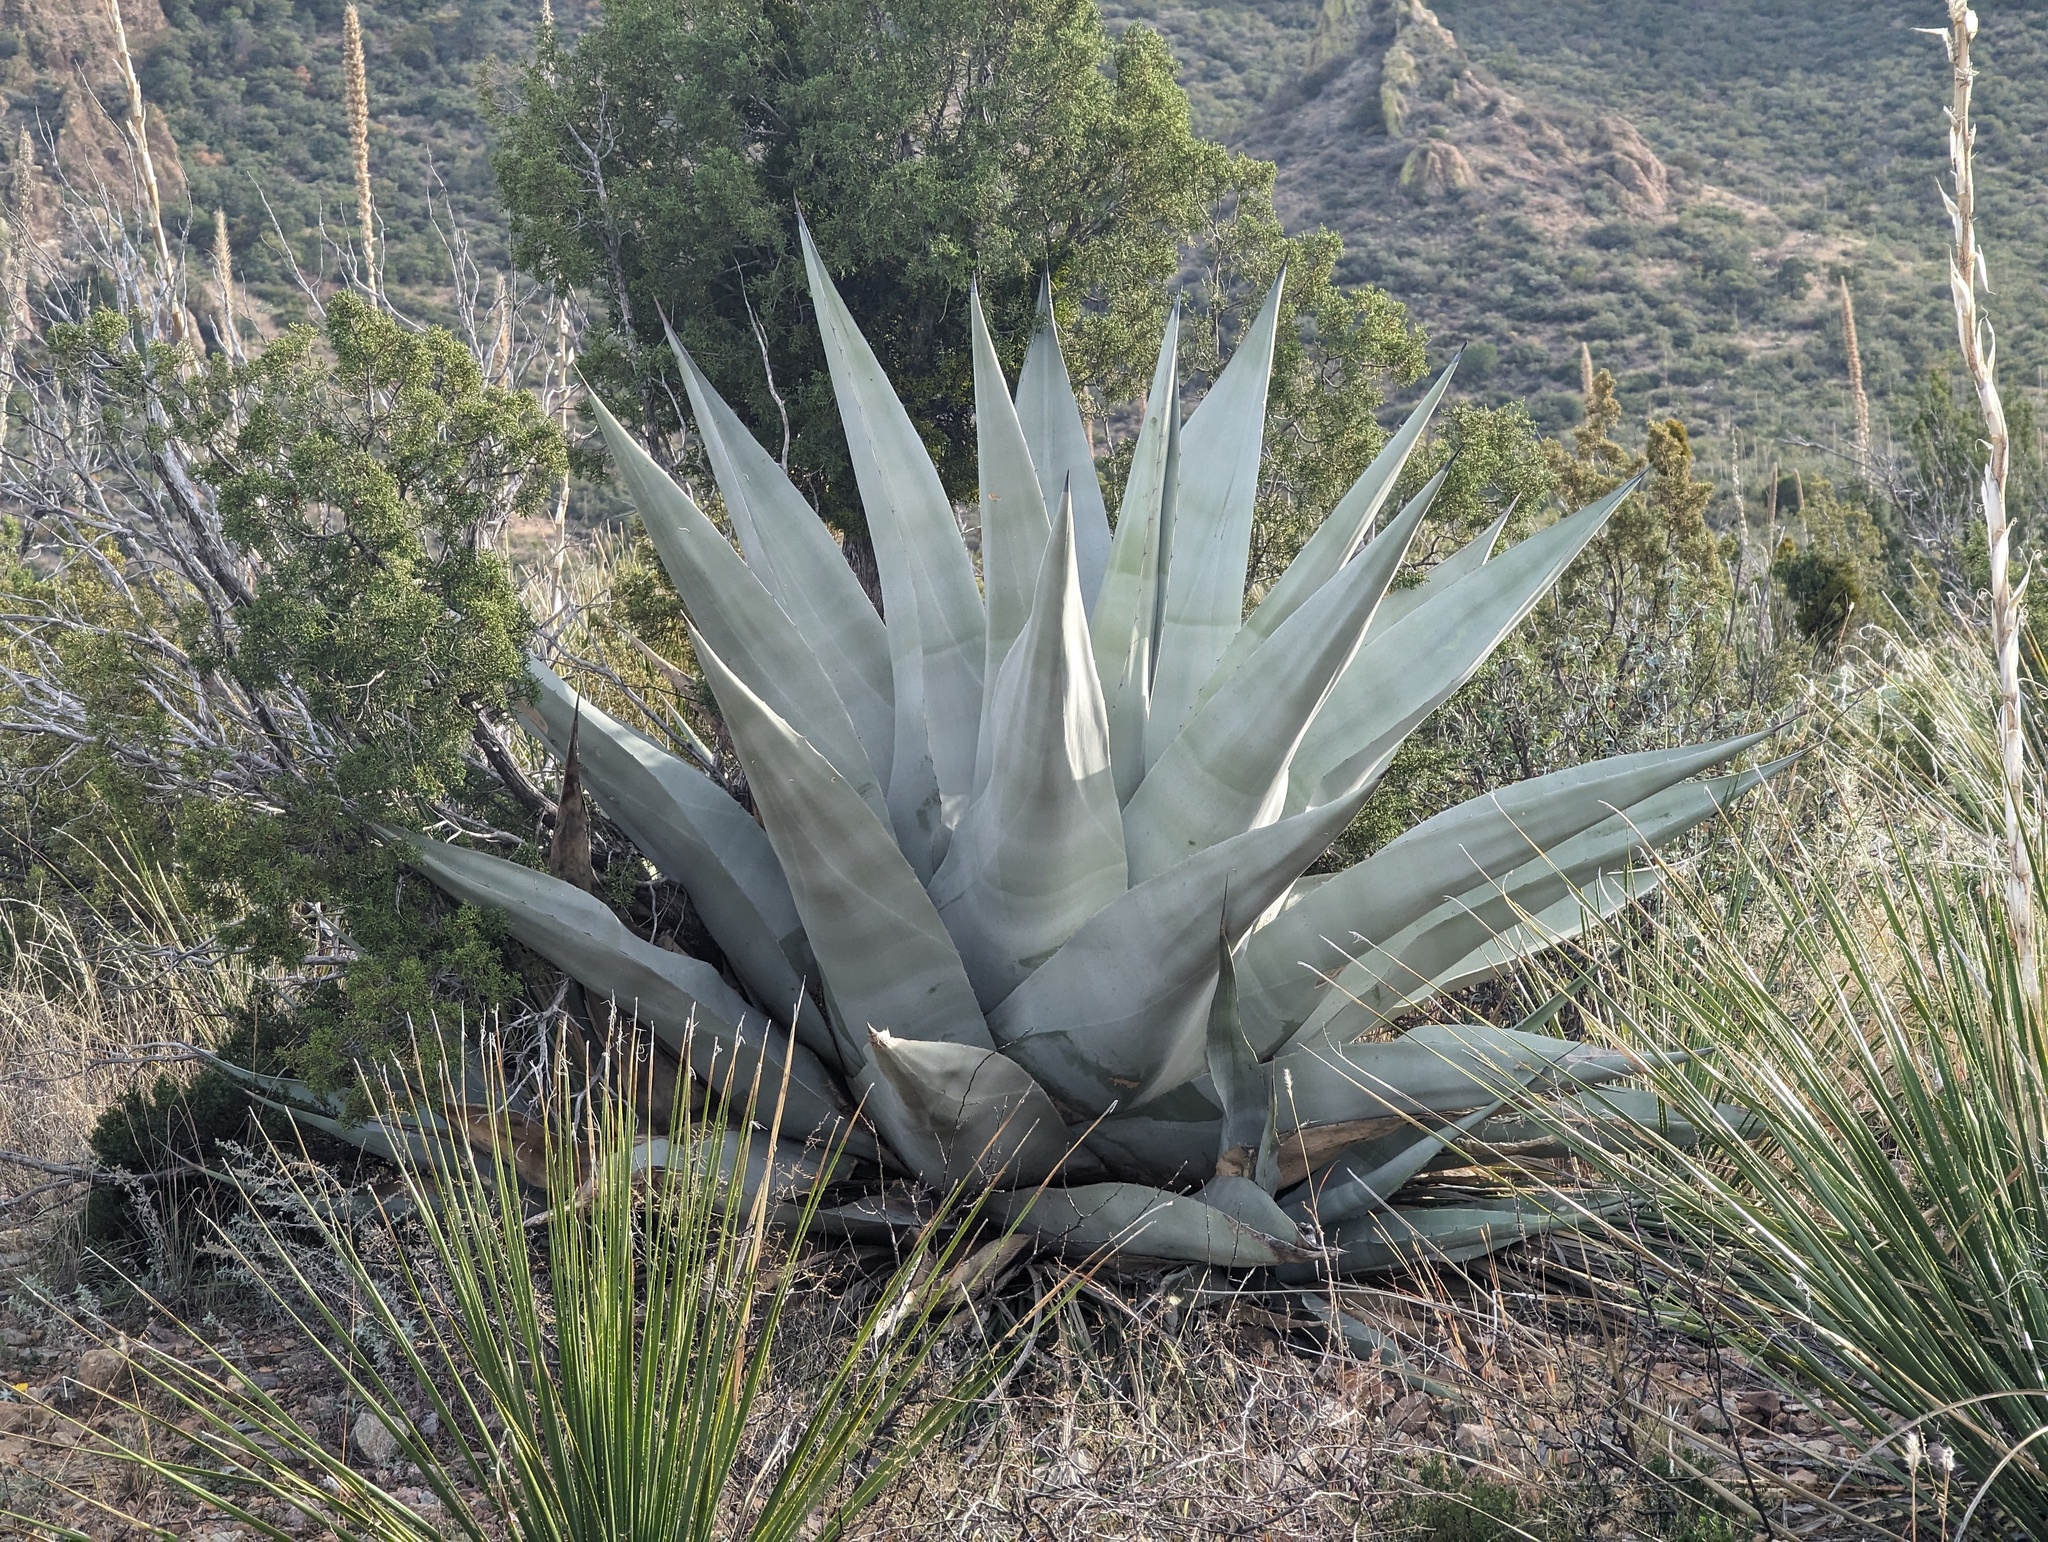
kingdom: Plantae
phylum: Tracheophyta
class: Liliopsida
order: Asparagales
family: Asparagaceae
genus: Agave
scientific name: Agave havardiana
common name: Havard agave
